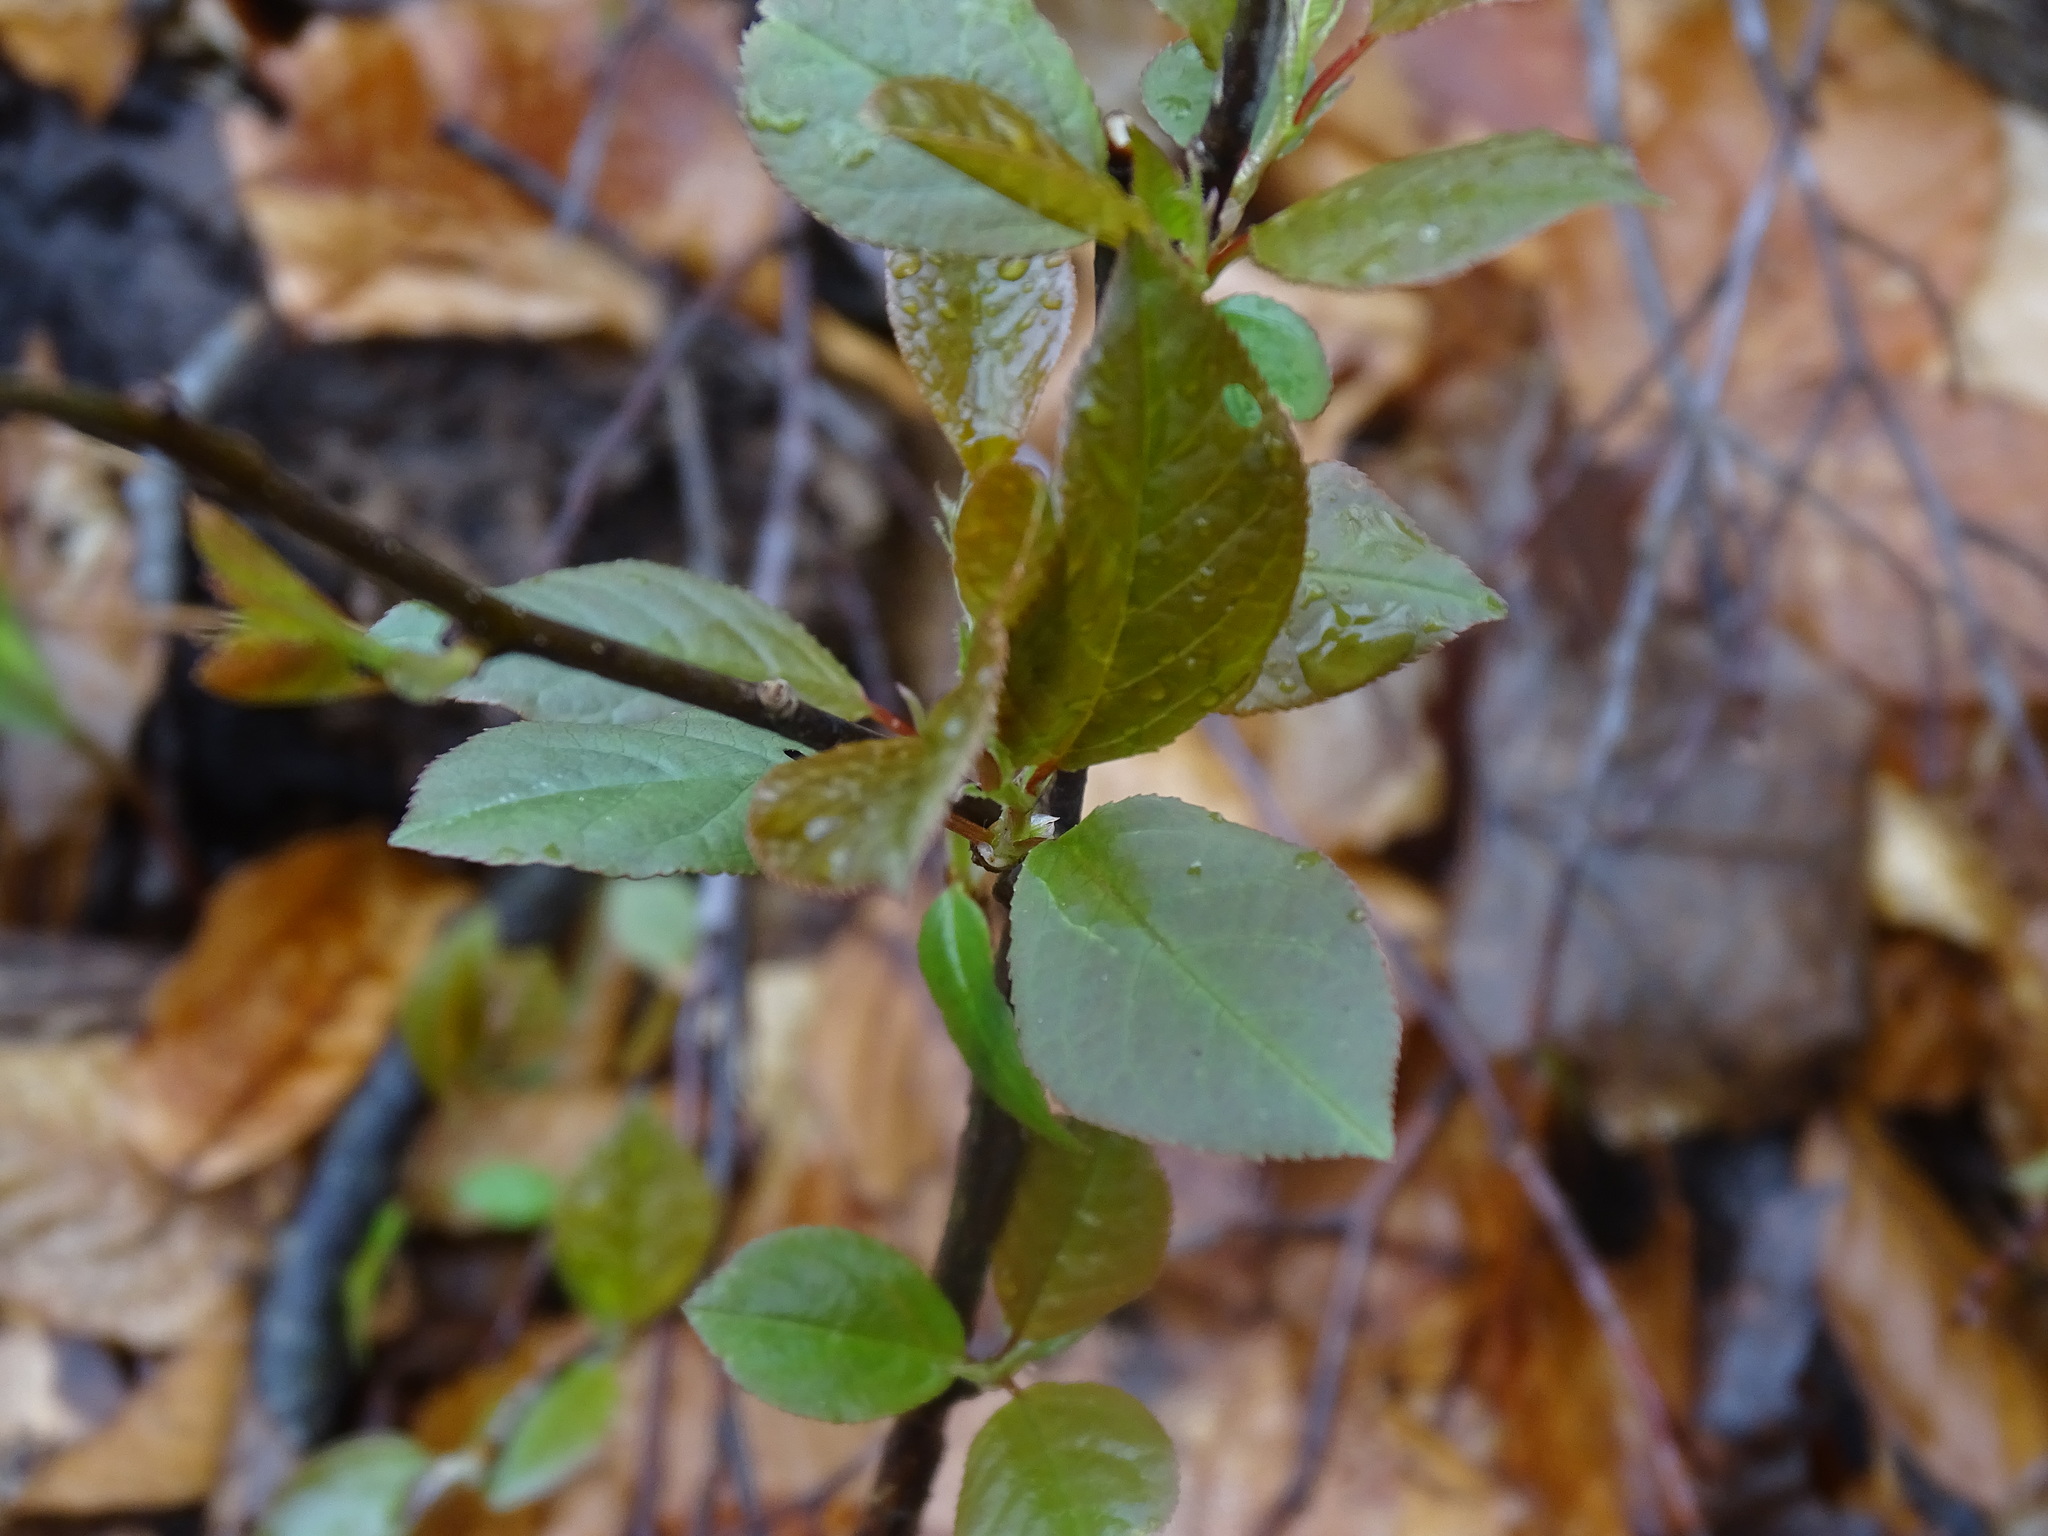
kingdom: Plantae
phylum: Tracheophyta
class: Magnoliopsida
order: Rosales
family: Rosaceae
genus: Prunus
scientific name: Prunus virginiana
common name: Chokecherry
